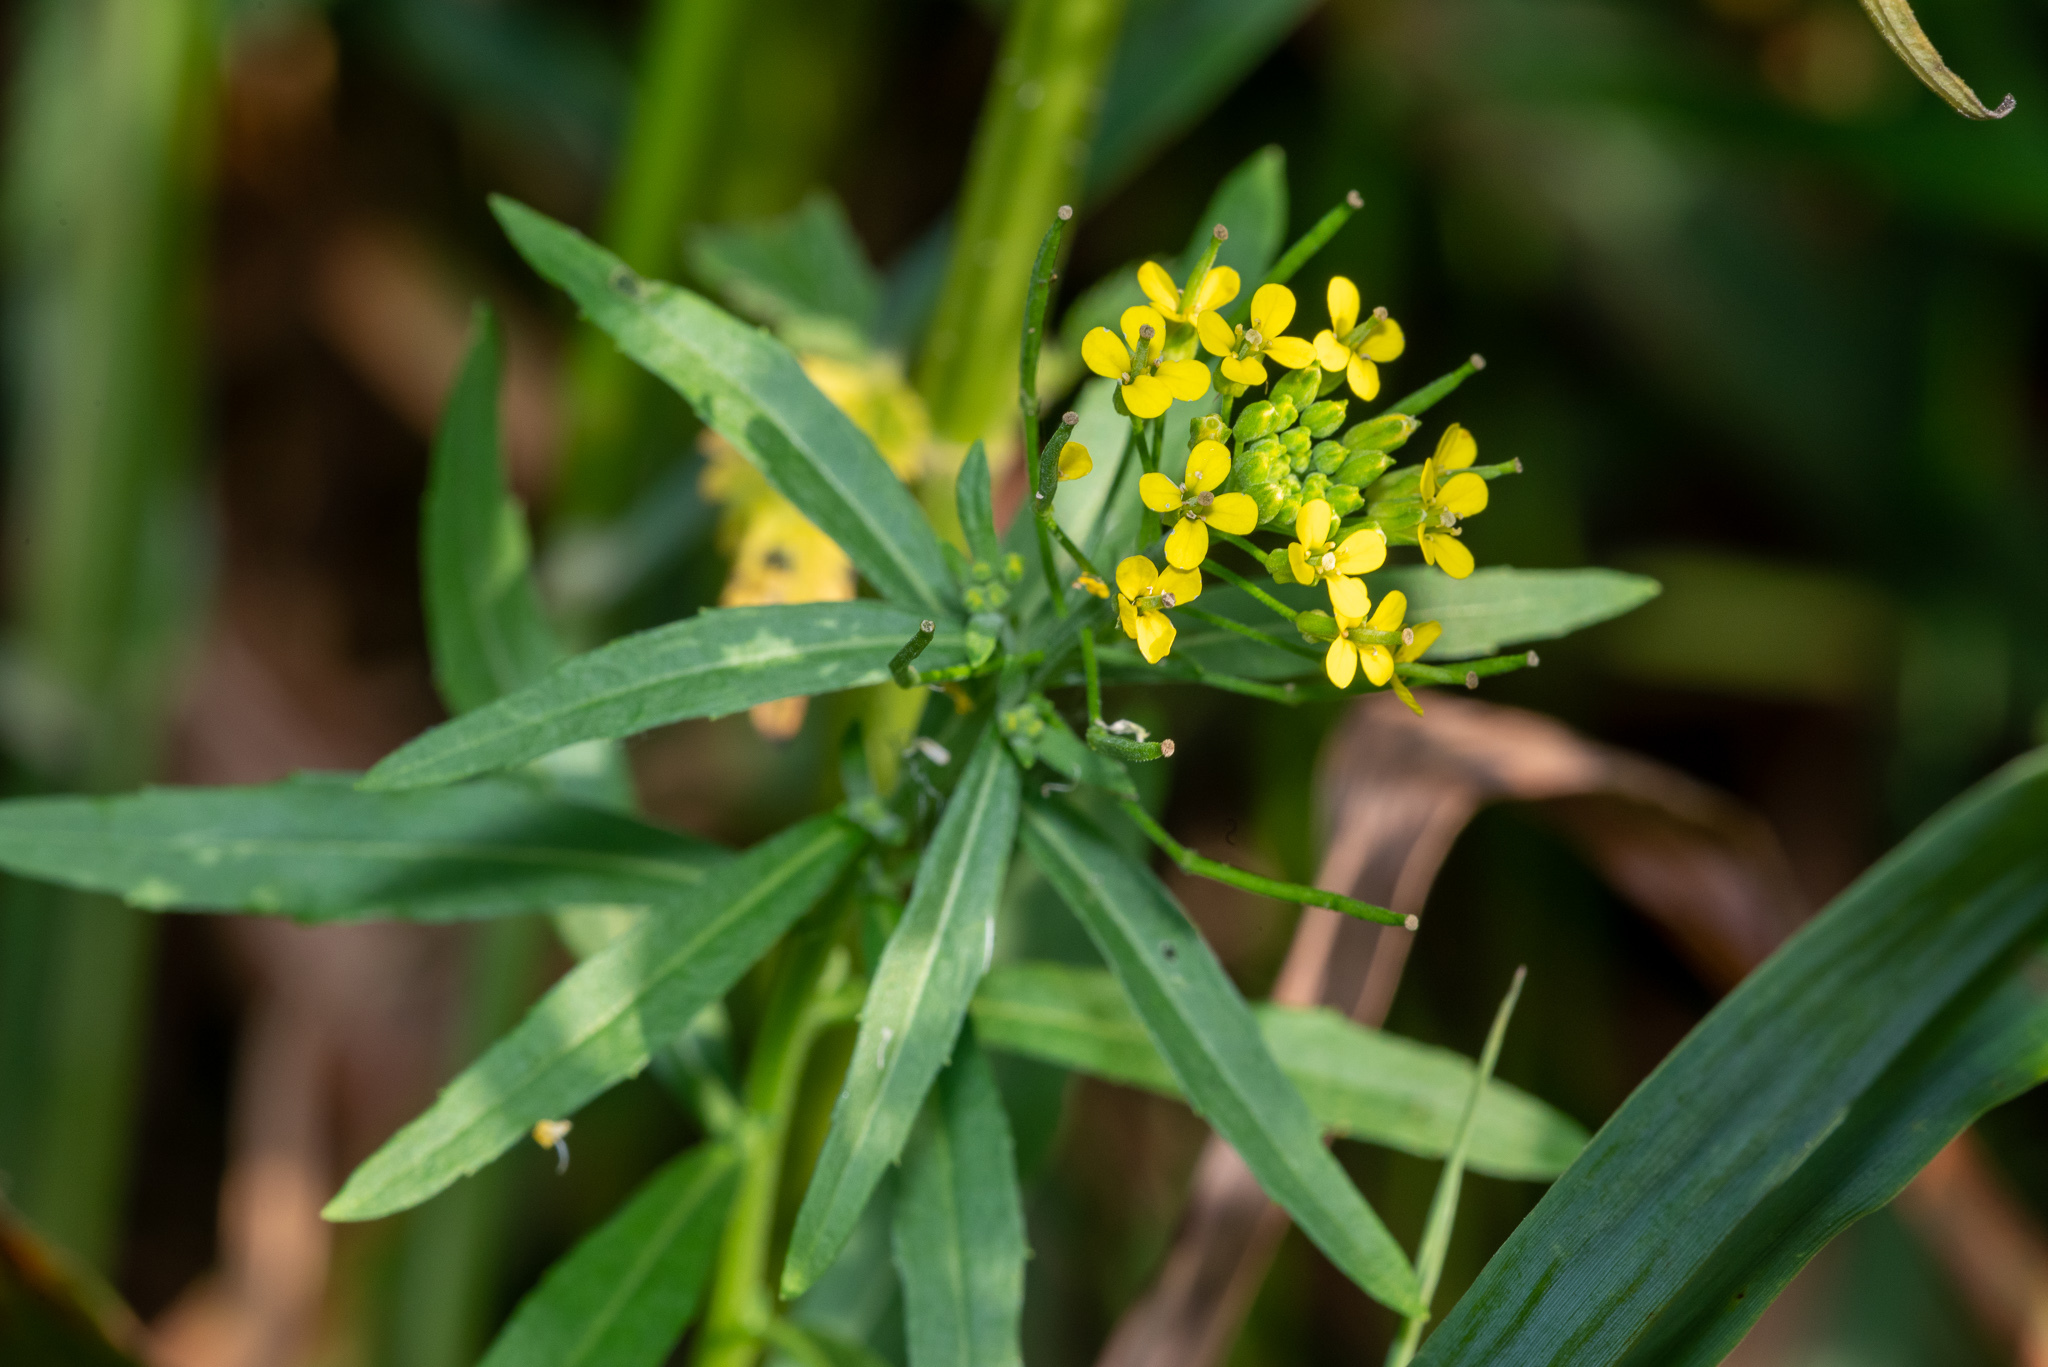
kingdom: Plantae
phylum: Tracheophyta
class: Magnoliopsida
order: Brassicales
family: Brassicaceae
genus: Erysimum
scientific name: Erysimum cheiranthoides
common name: Treacle mustard
